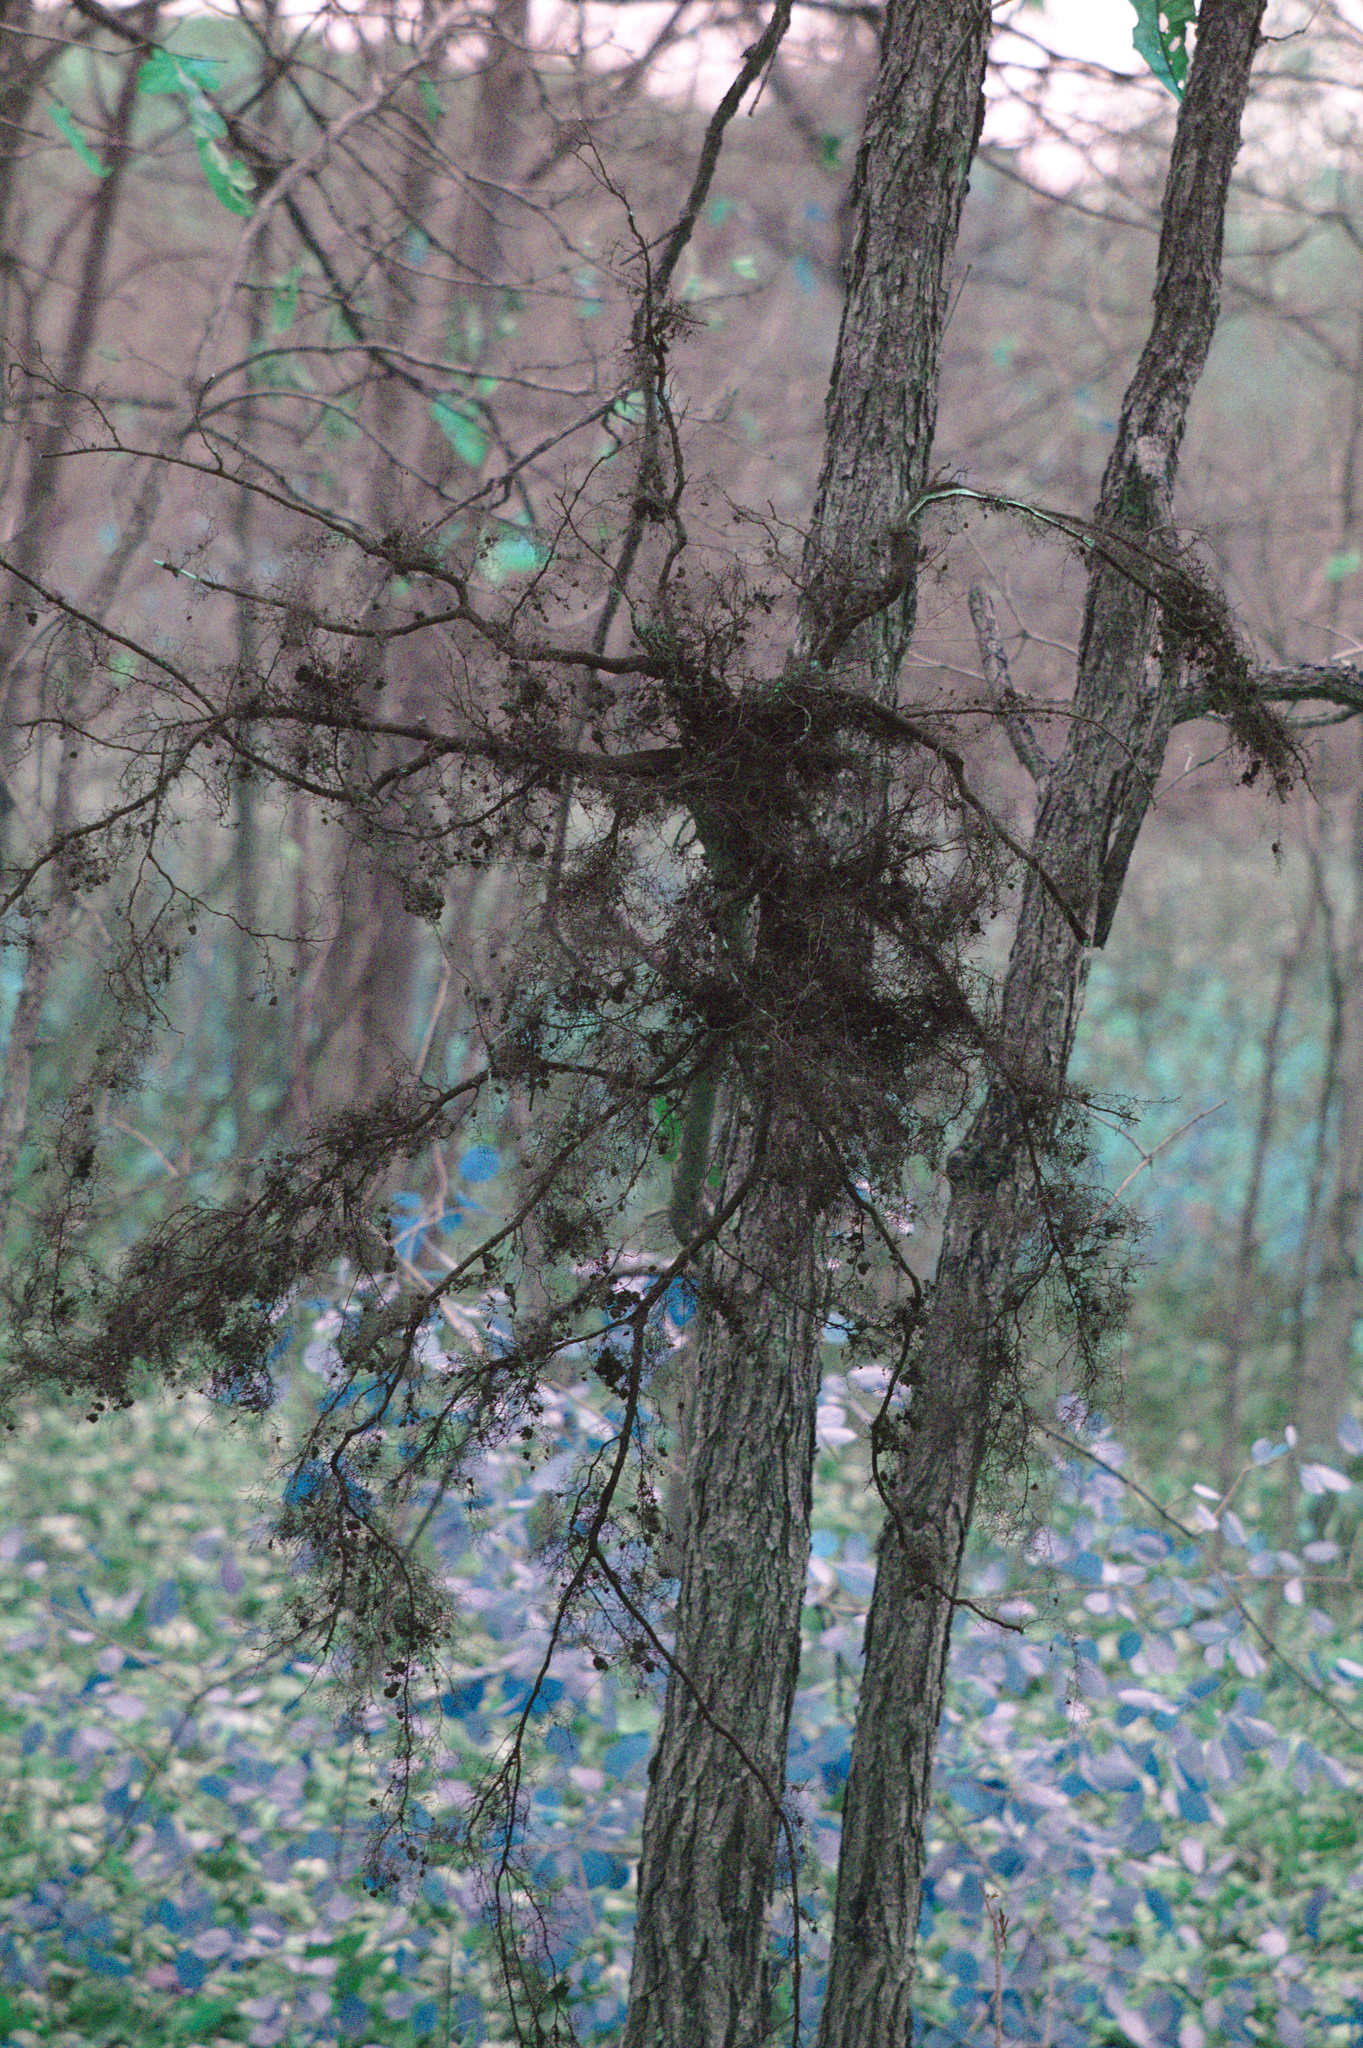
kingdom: Plantae
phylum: Tracheophyta
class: Magnoliopsida
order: Rosales
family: Rhamnaceae
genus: Rhamnus
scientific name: Rhamnus cathartica
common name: Common buckthorn
